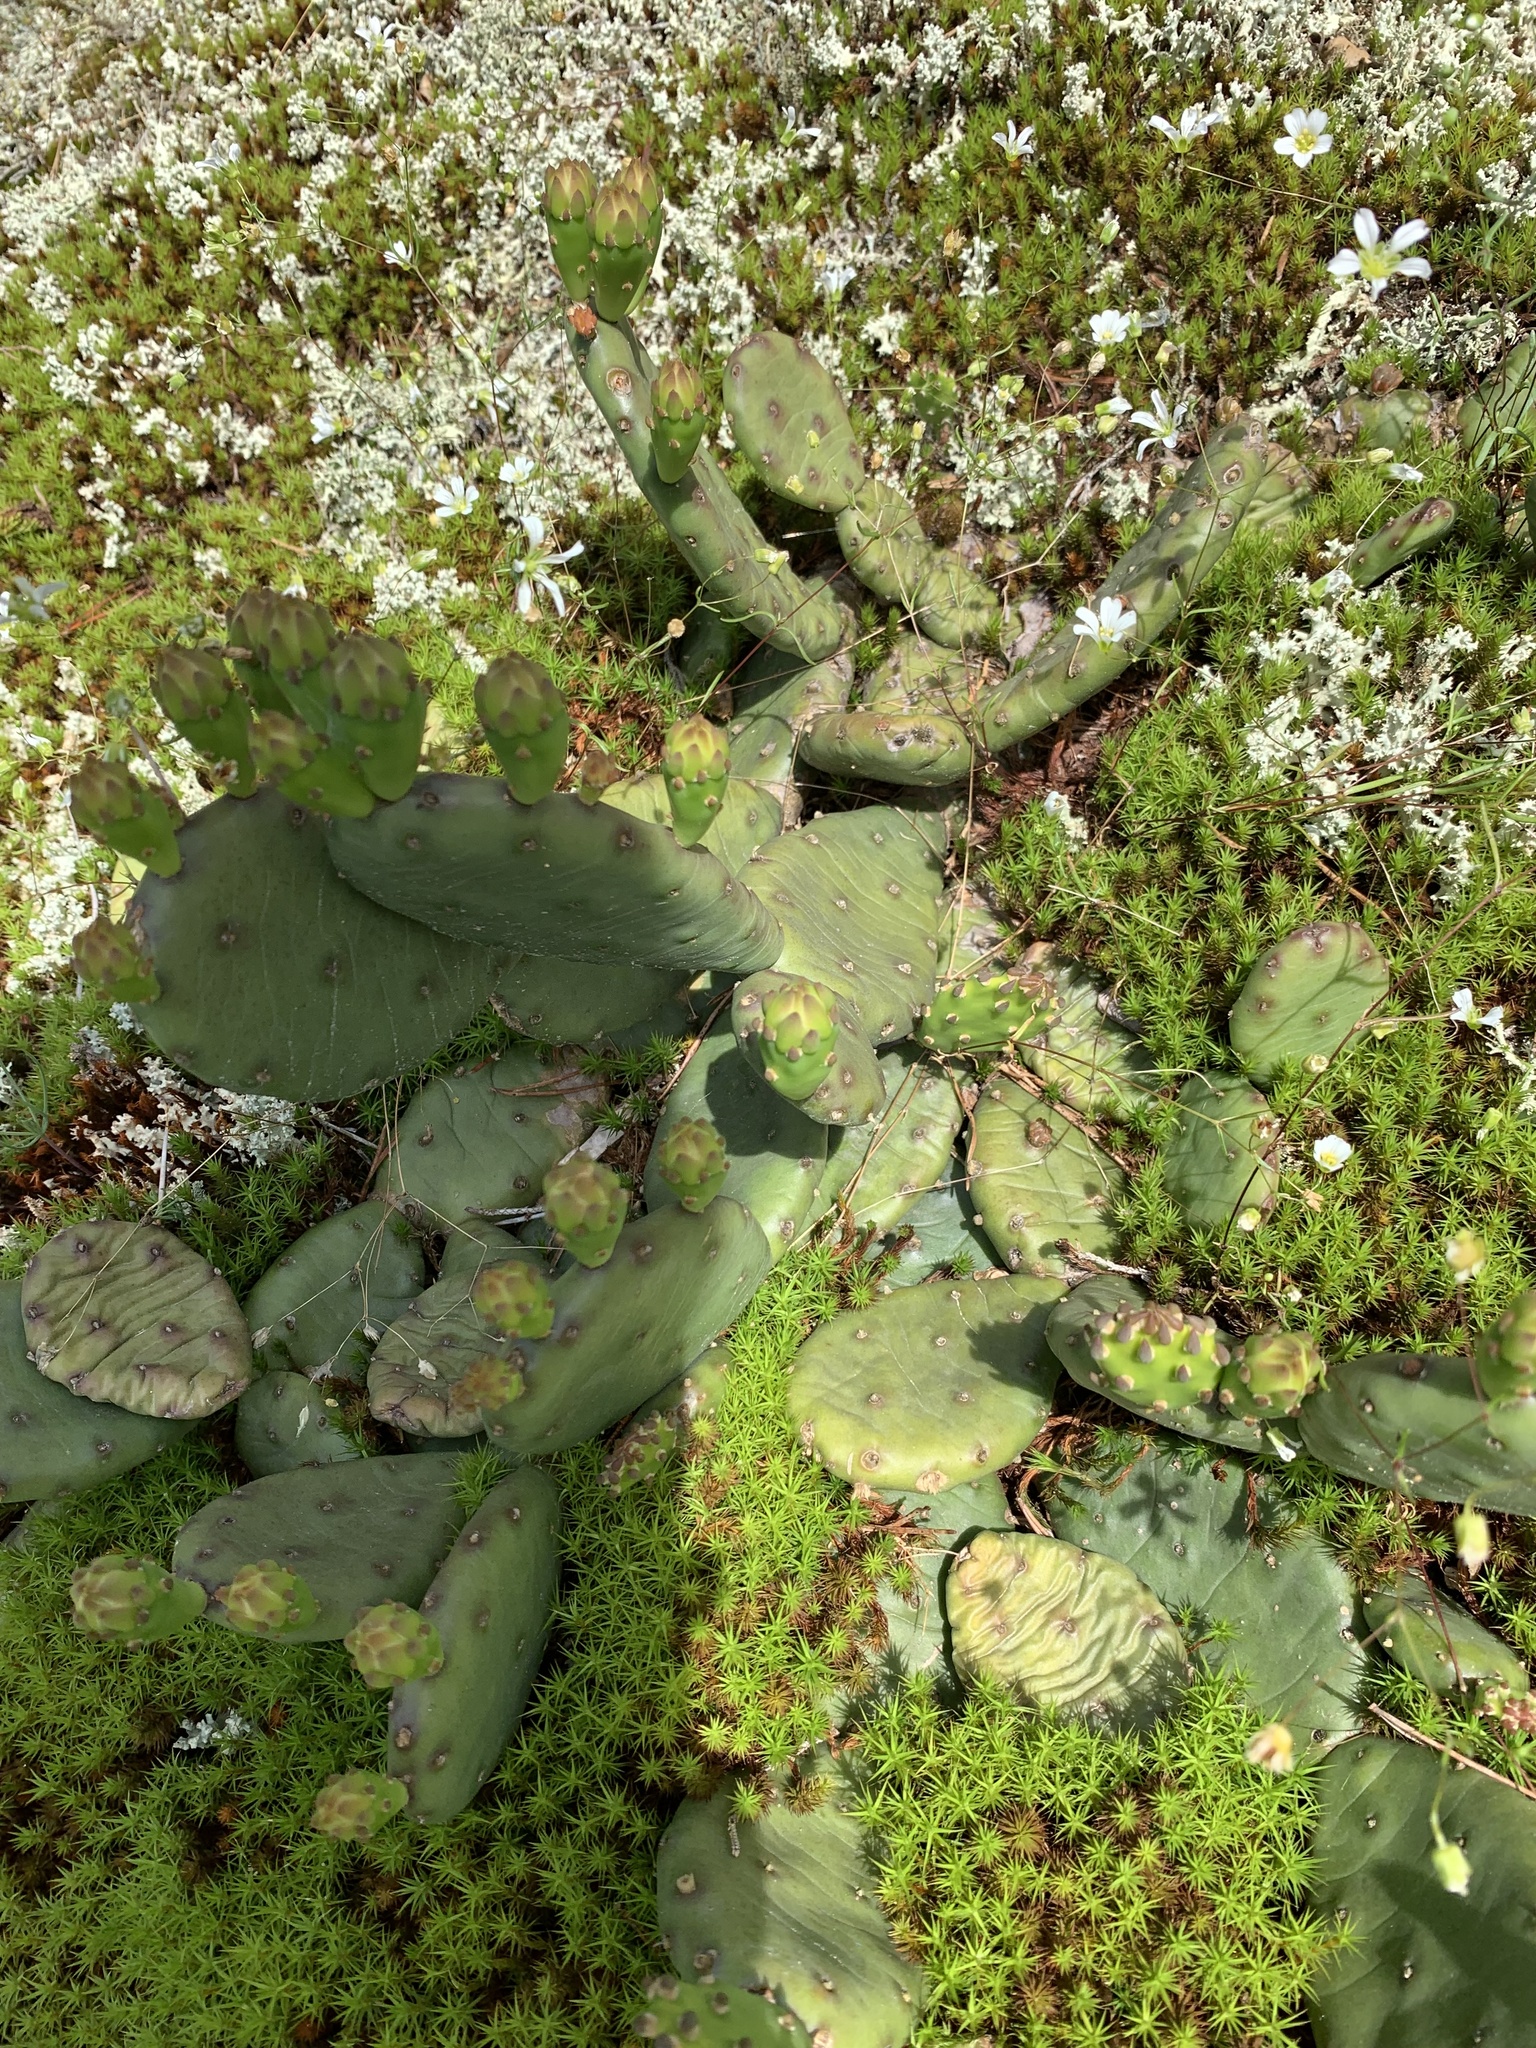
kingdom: Plantae
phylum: Tracheophyta
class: Magnoliopsida
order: Caryophyllales
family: Cactaceae
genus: Opuntia
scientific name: Opuntia mesacantha
